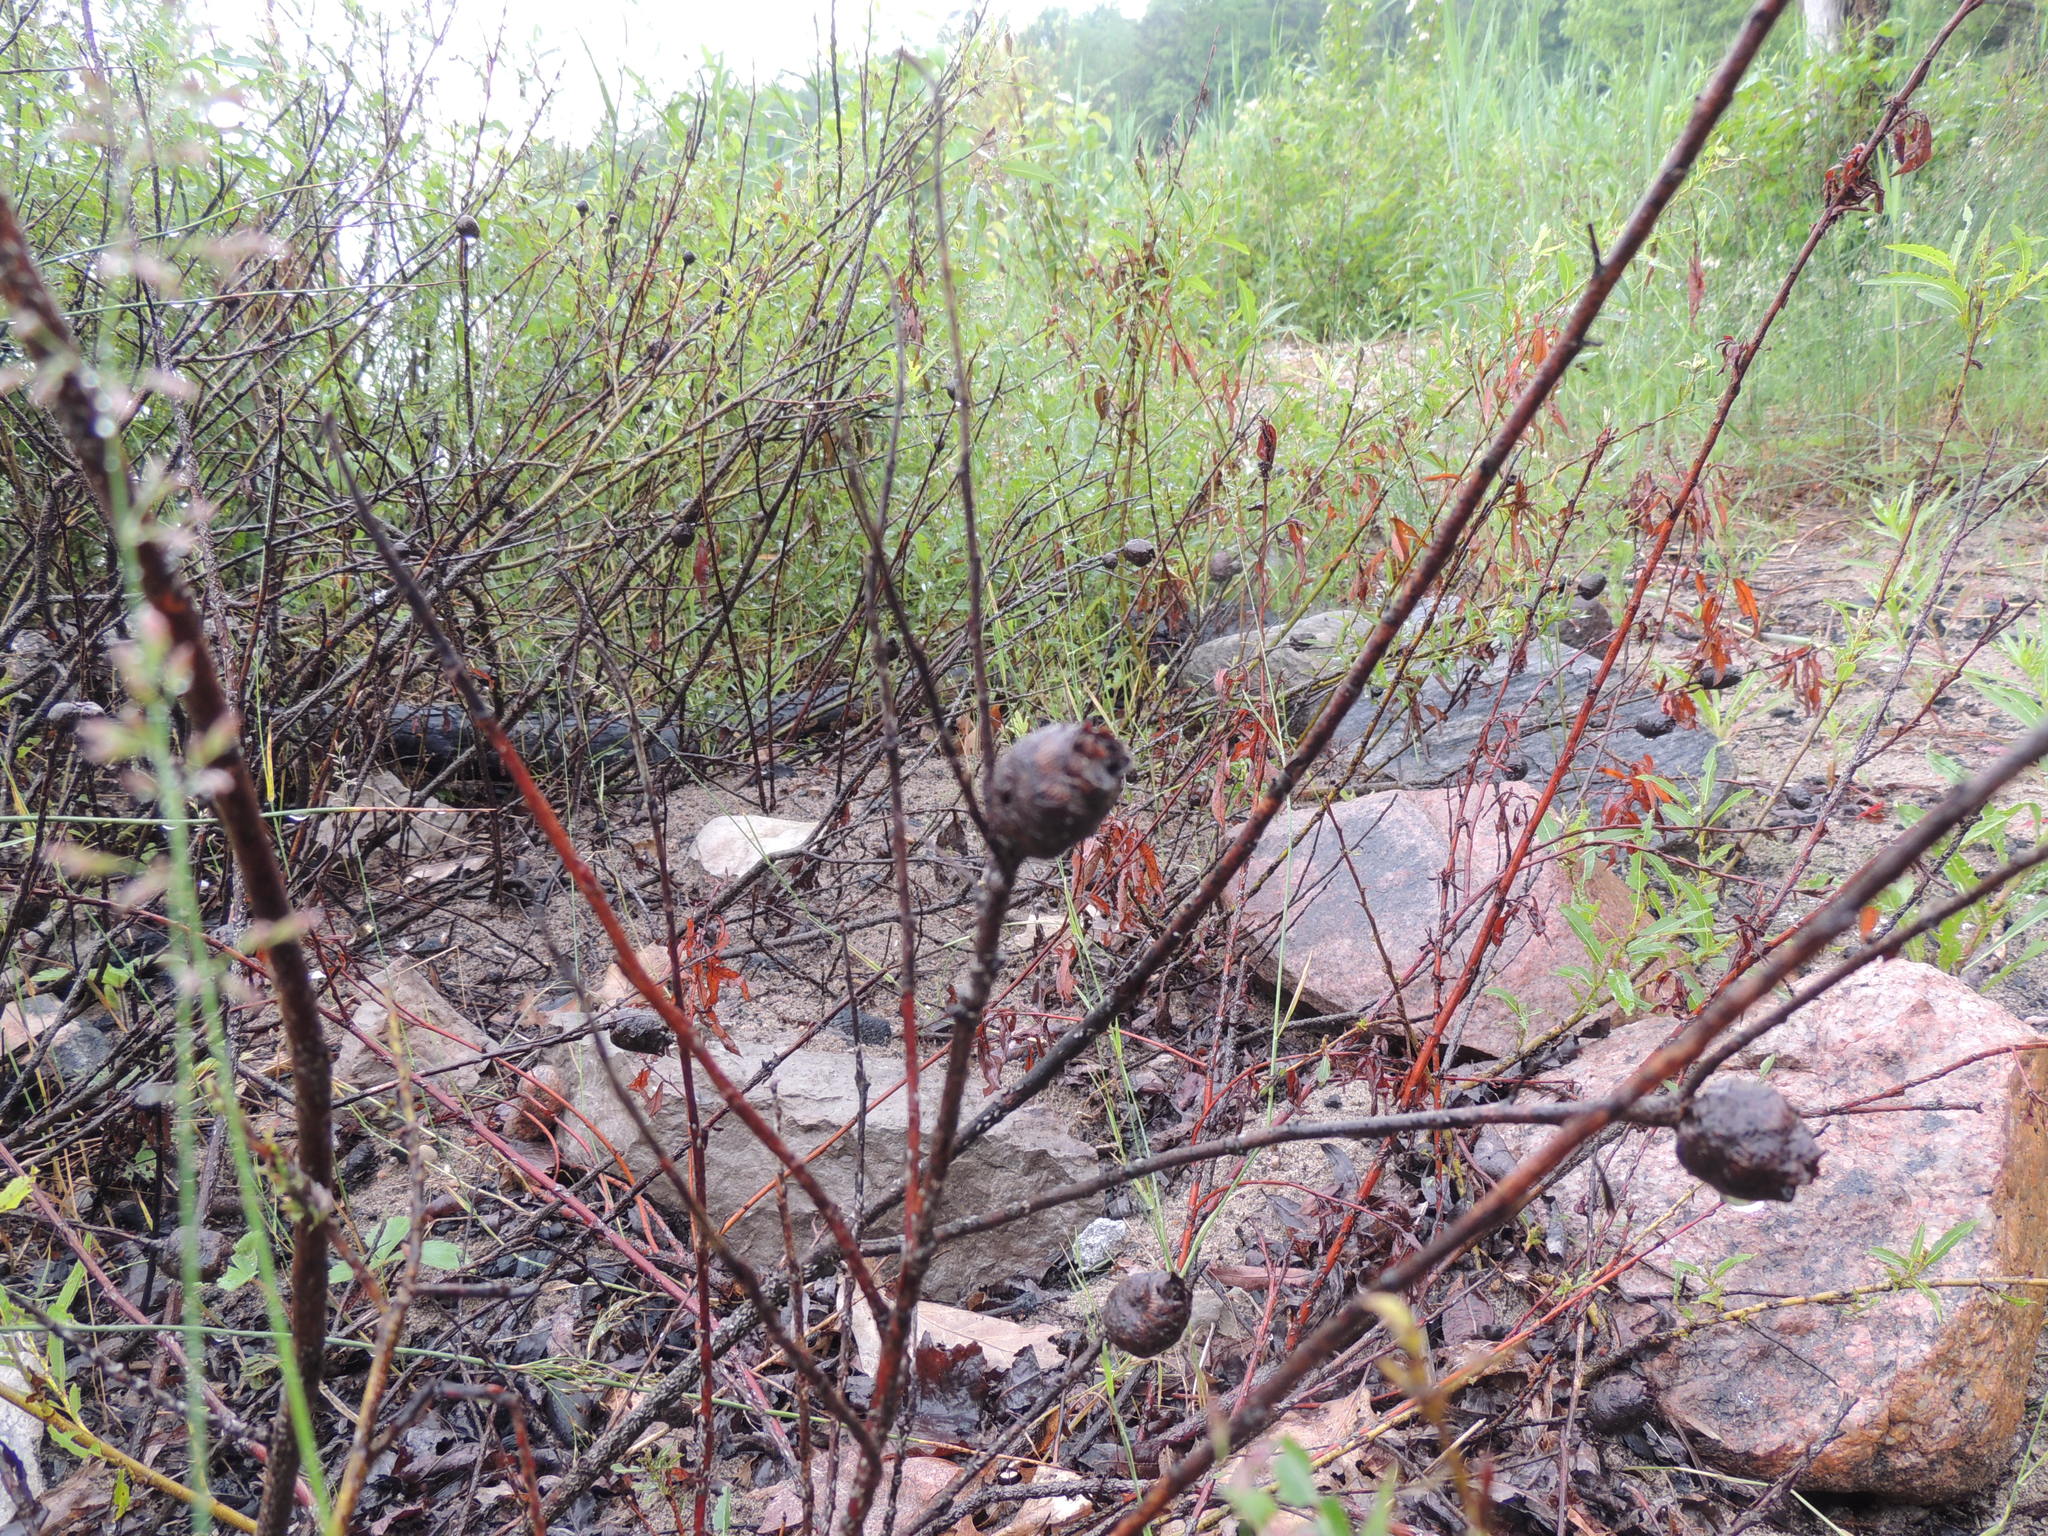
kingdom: Animalia
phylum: Arthropoda
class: Insecta
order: Diptera
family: Cecidomyiidae
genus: Rabdophaga
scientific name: Rabdophaga strobiloides
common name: Willow pinecone gall midge
